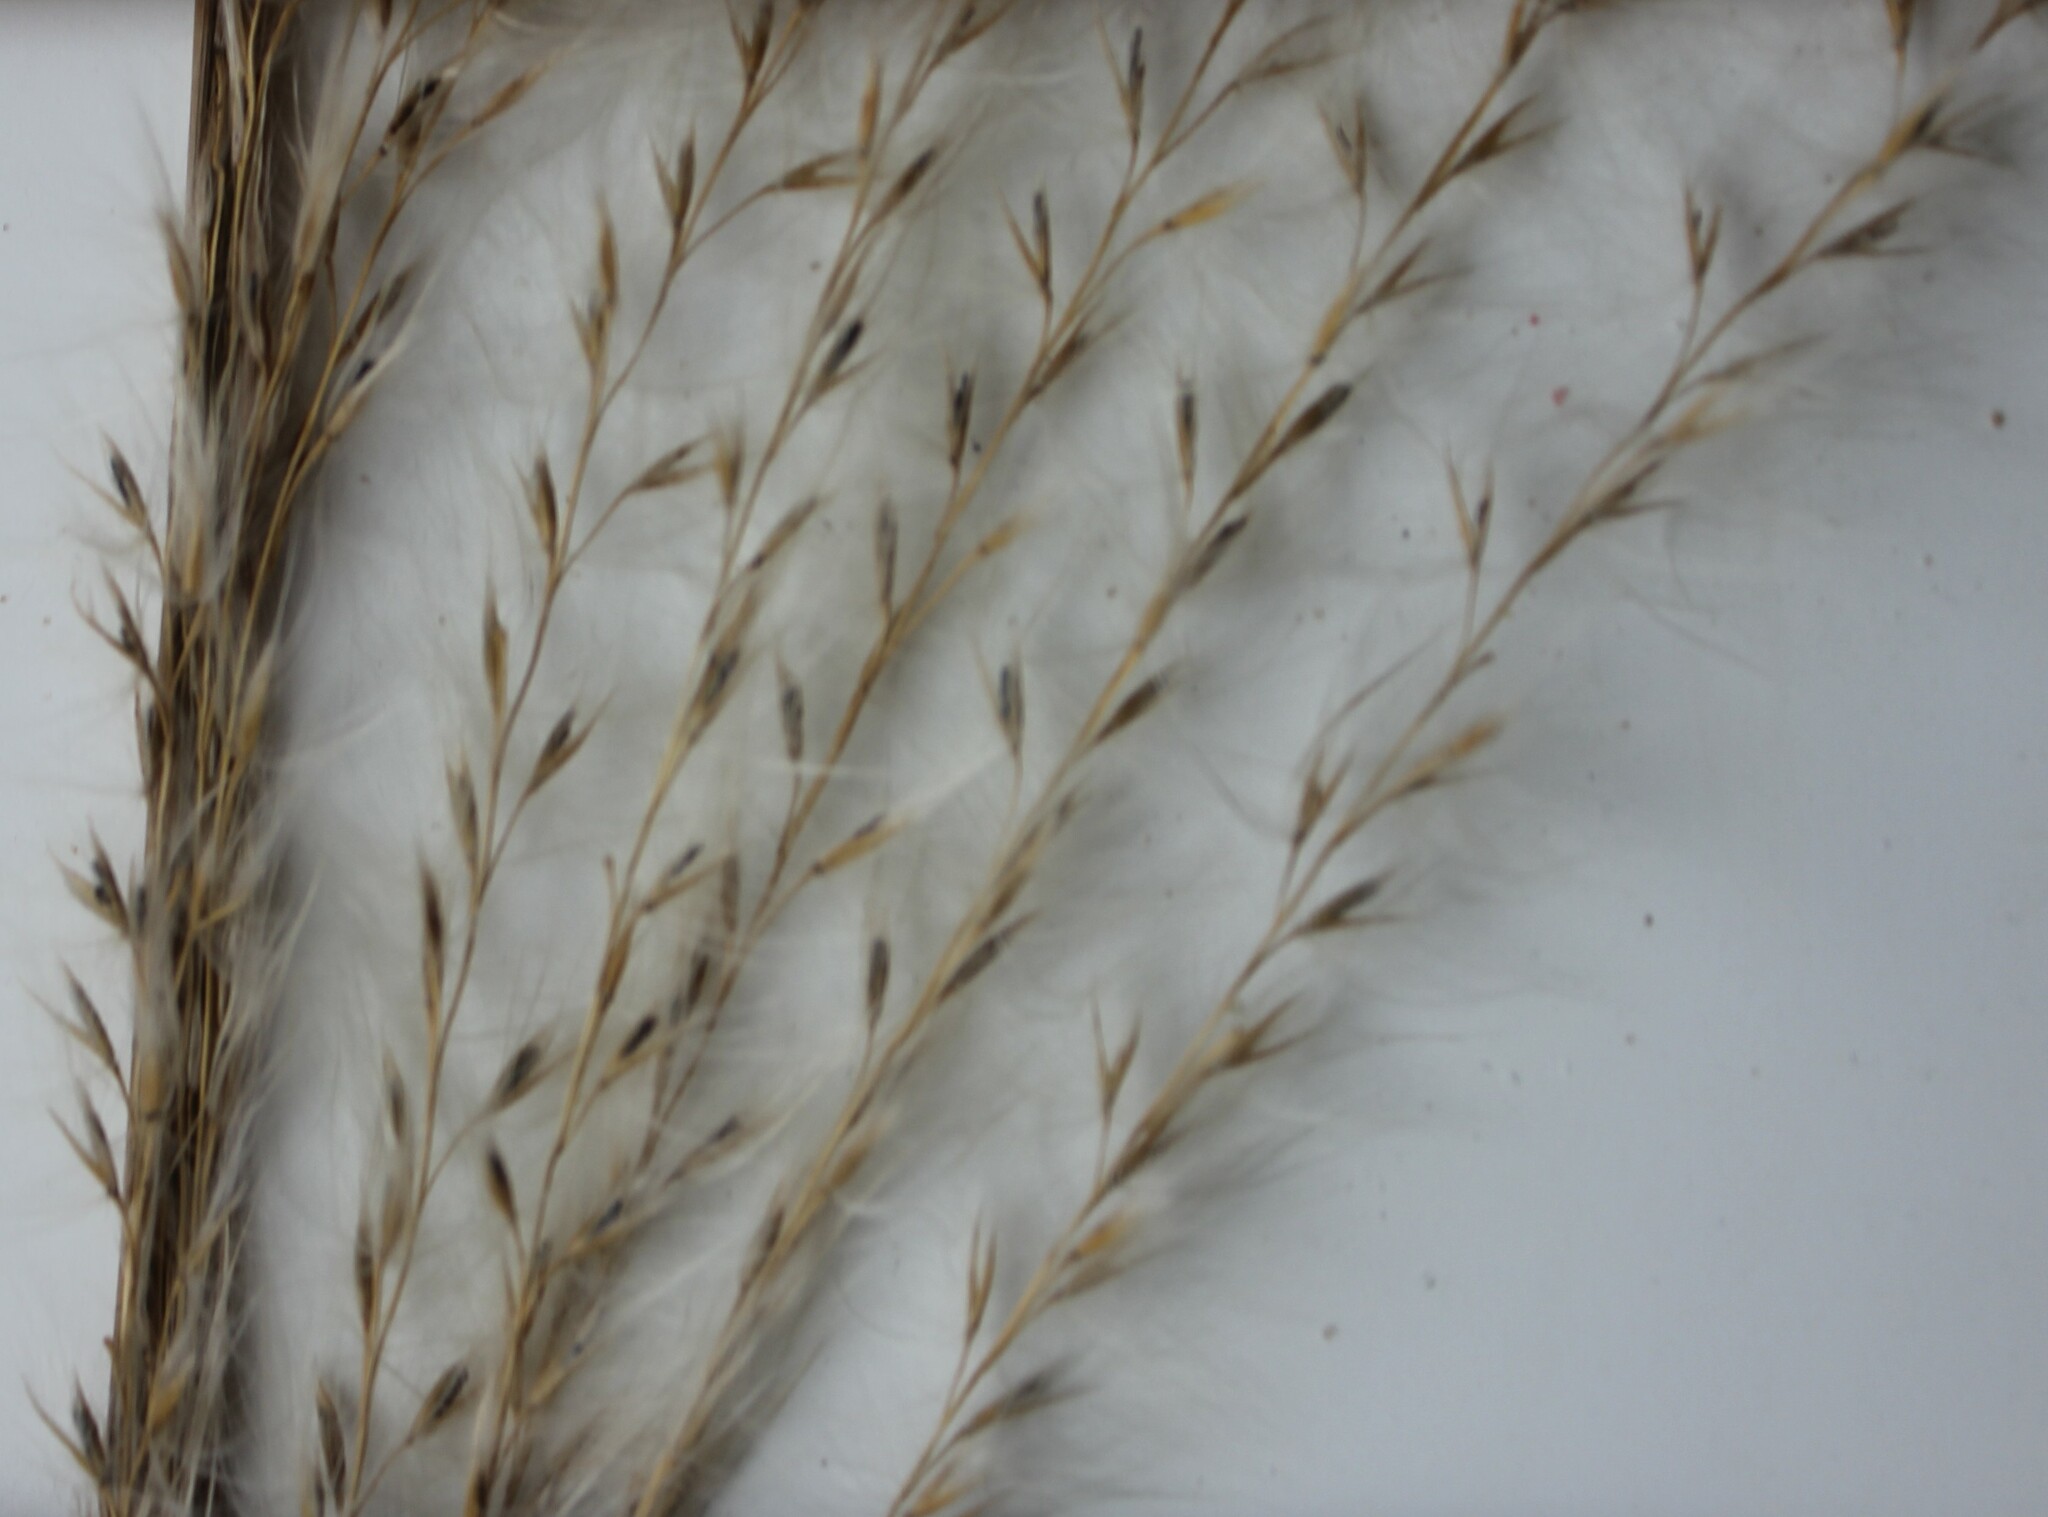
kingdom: Plantae
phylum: Tracheophyta
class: Liliopsida
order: Poales
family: Poaceae
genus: Miscanthus
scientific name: Miscanthus sacchariflorus
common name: Amur silver grass
